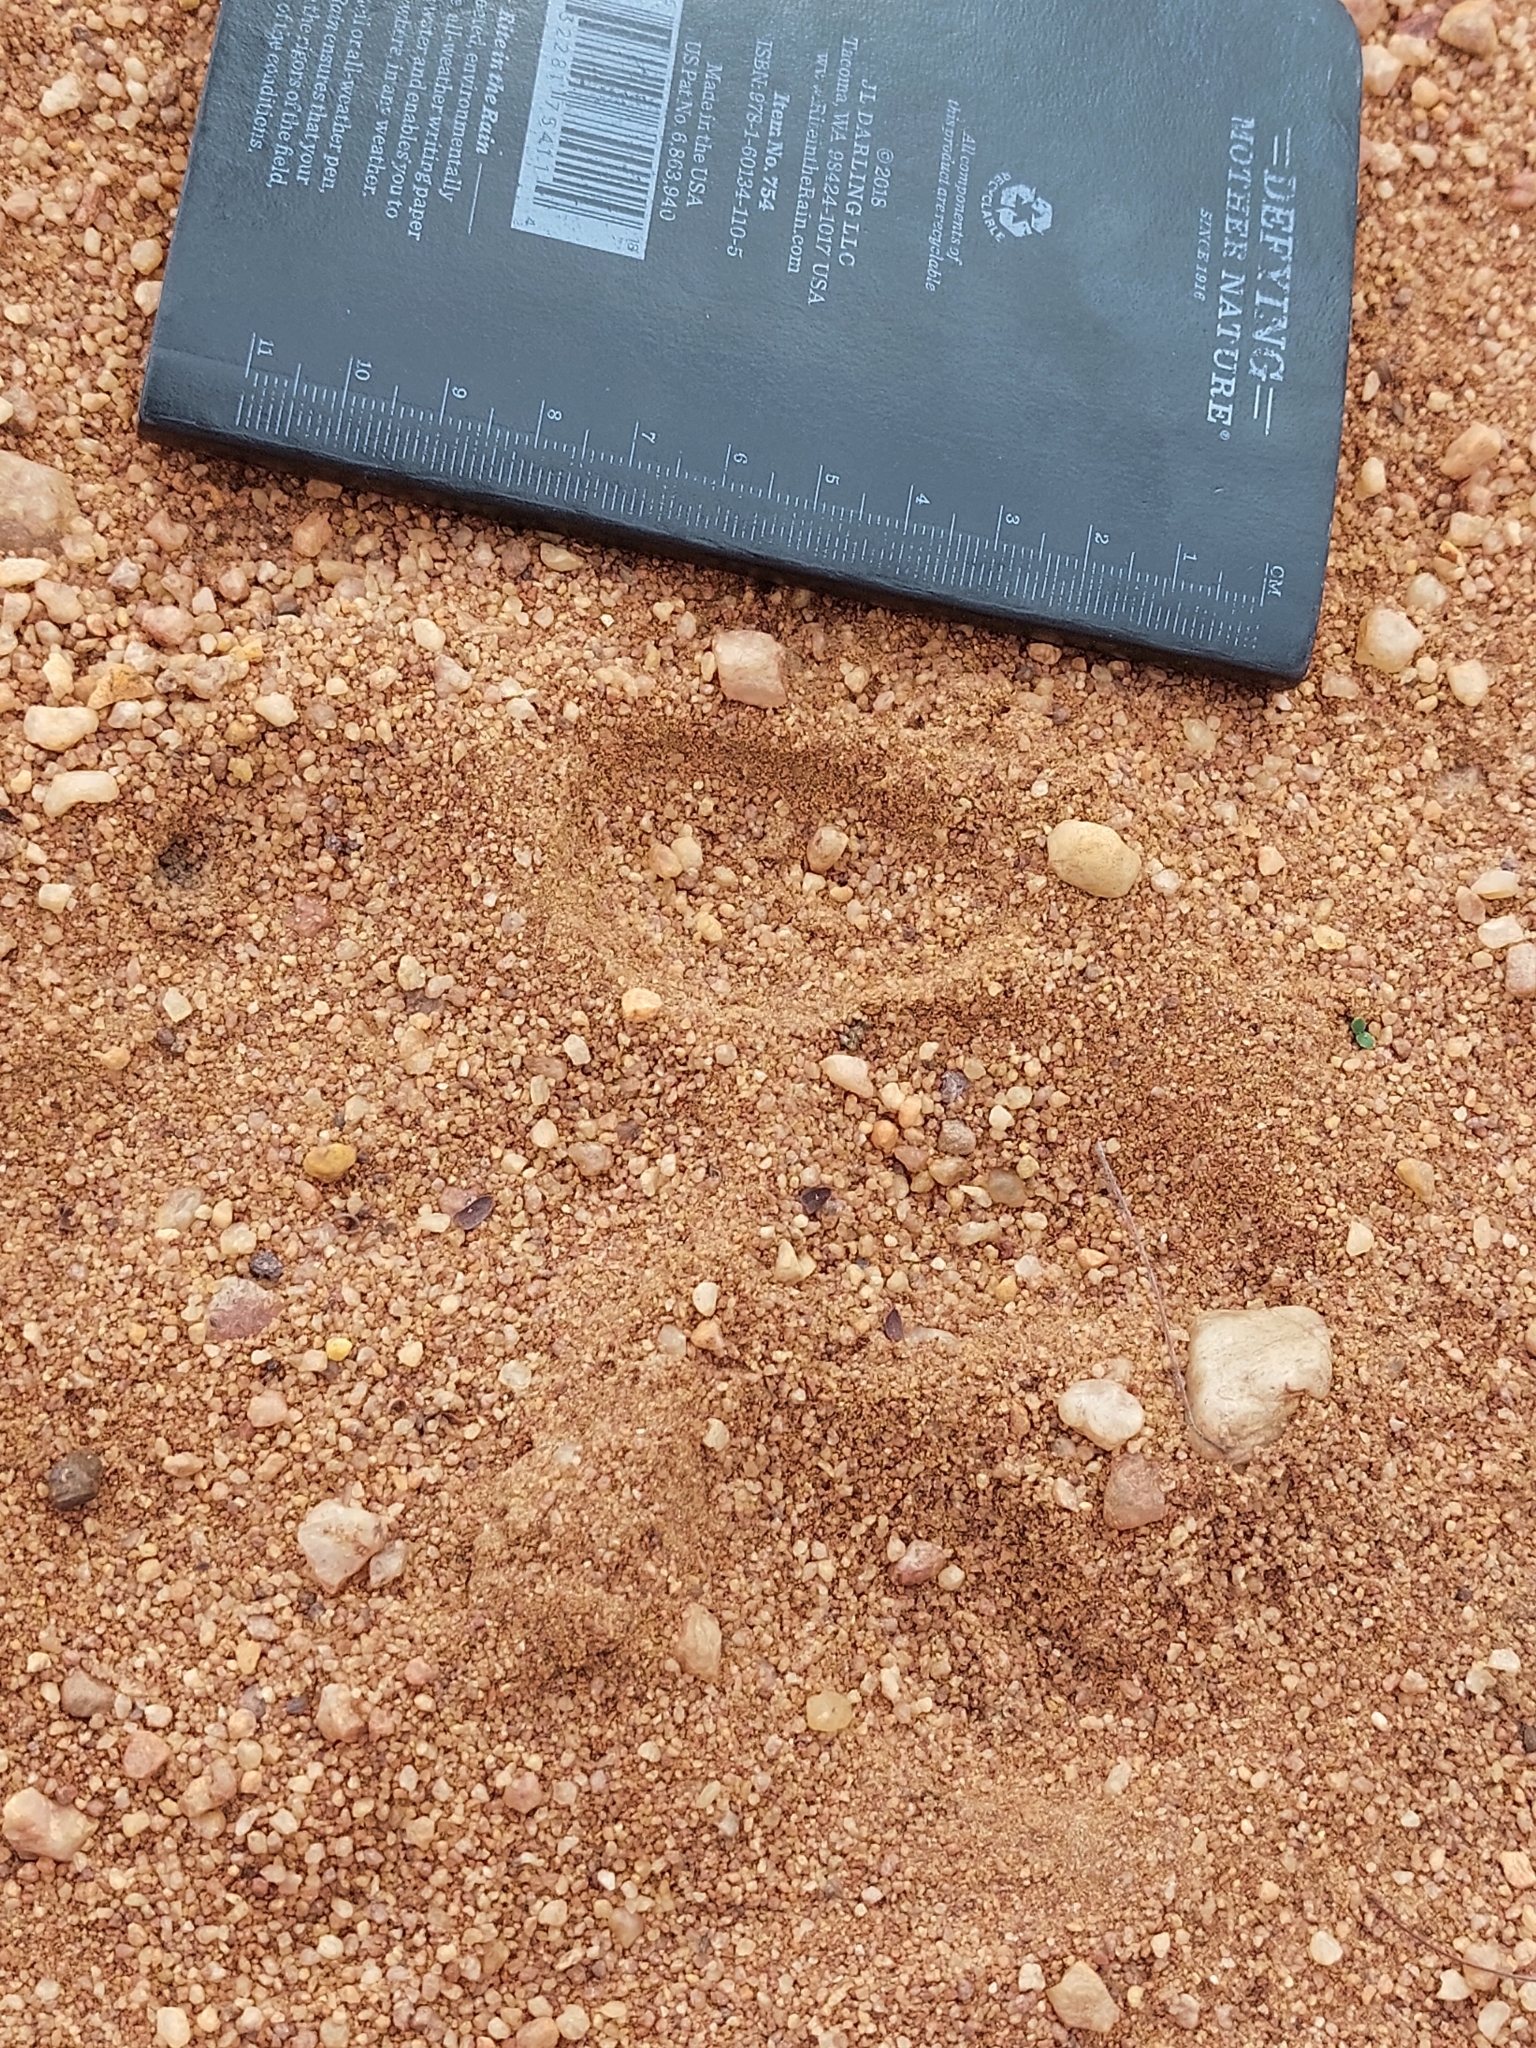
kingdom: Animalia
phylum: Chordata
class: Mammalia
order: Carnivora
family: Felidae
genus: Panthera
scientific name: Panthera leo
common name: Lion
